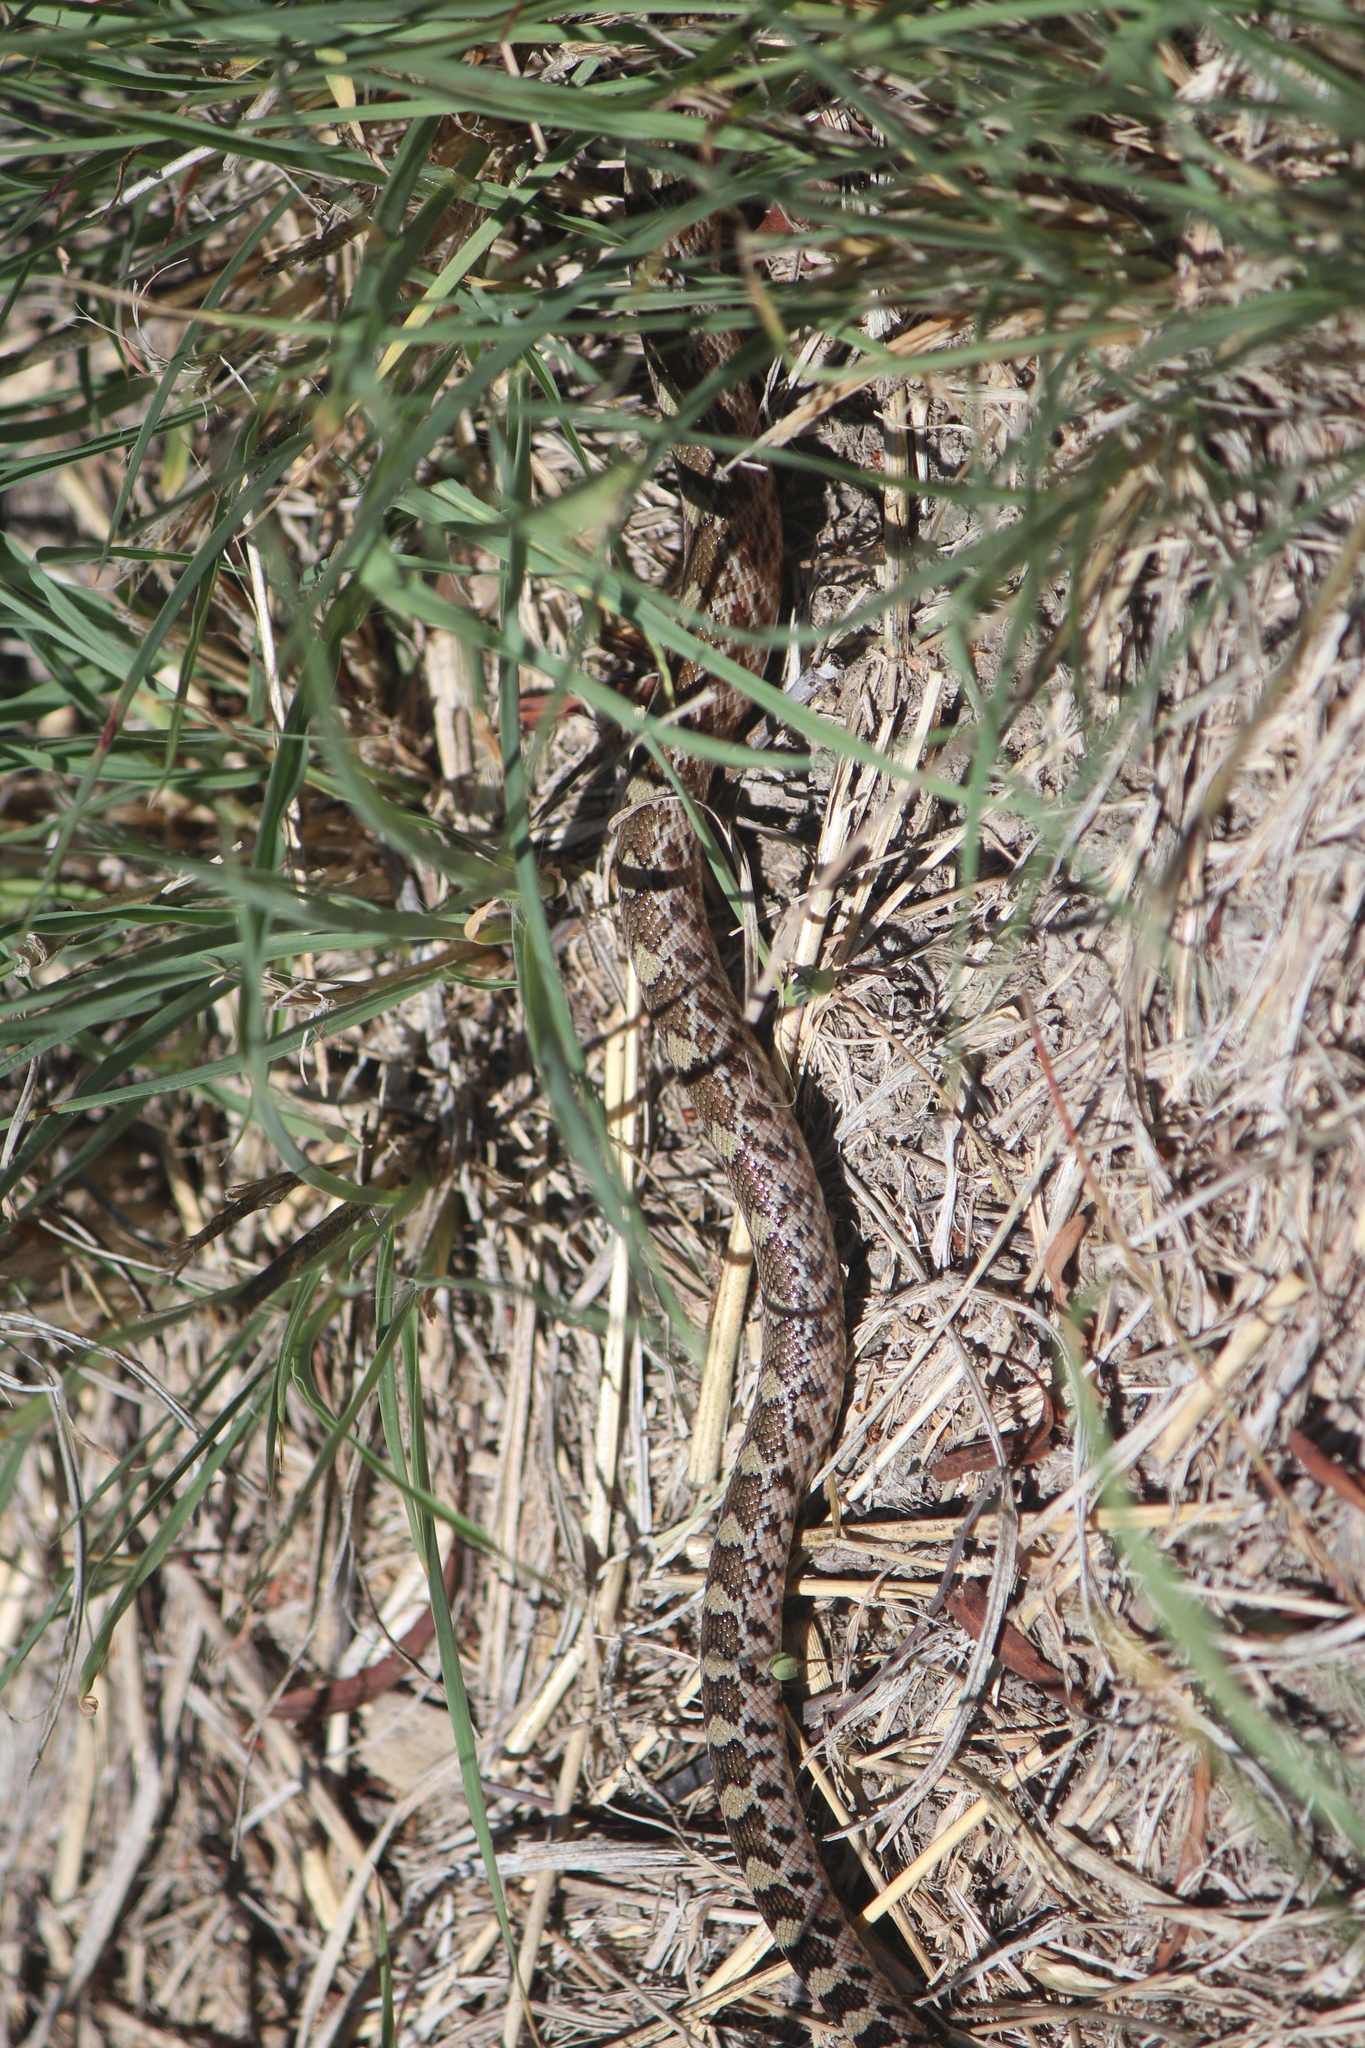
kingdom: Animalia
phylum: Chordata
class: Squamata
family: Colubridae
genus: Pituophis
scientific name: Pituophis deppei
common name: Mexican bull snake
